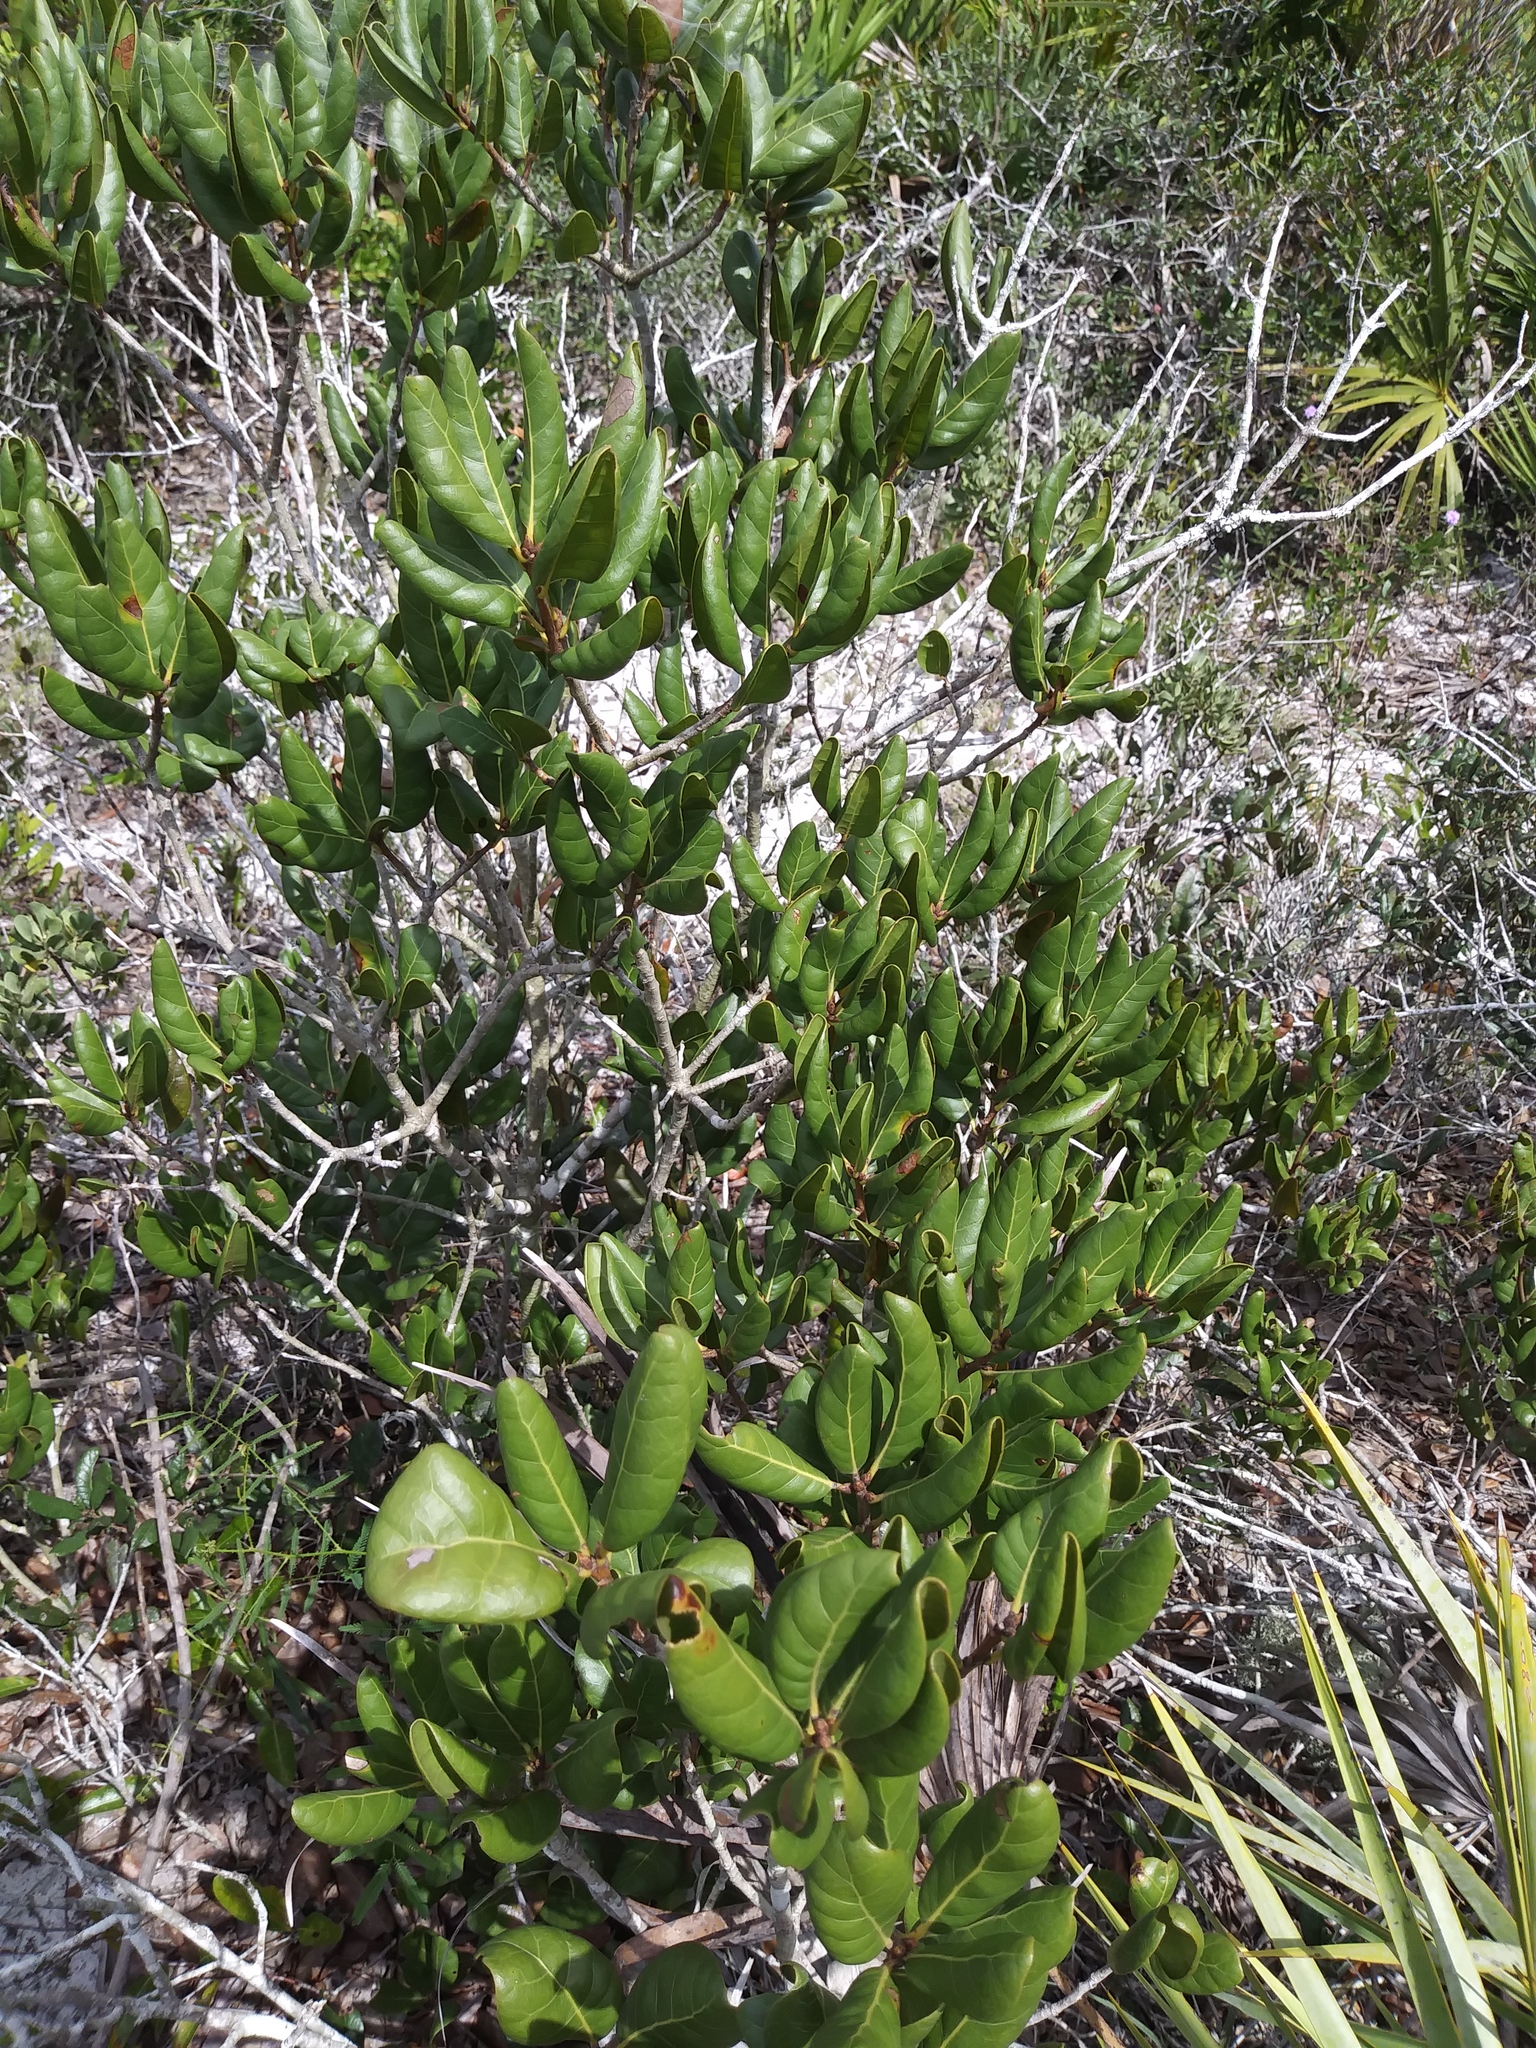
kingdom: Plantae
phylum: Tracheophyta
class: Magnoliopsida
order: Fagales
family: Fagaceae
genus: Quercus
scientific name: Quercus inopina
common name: Sandhill oak
